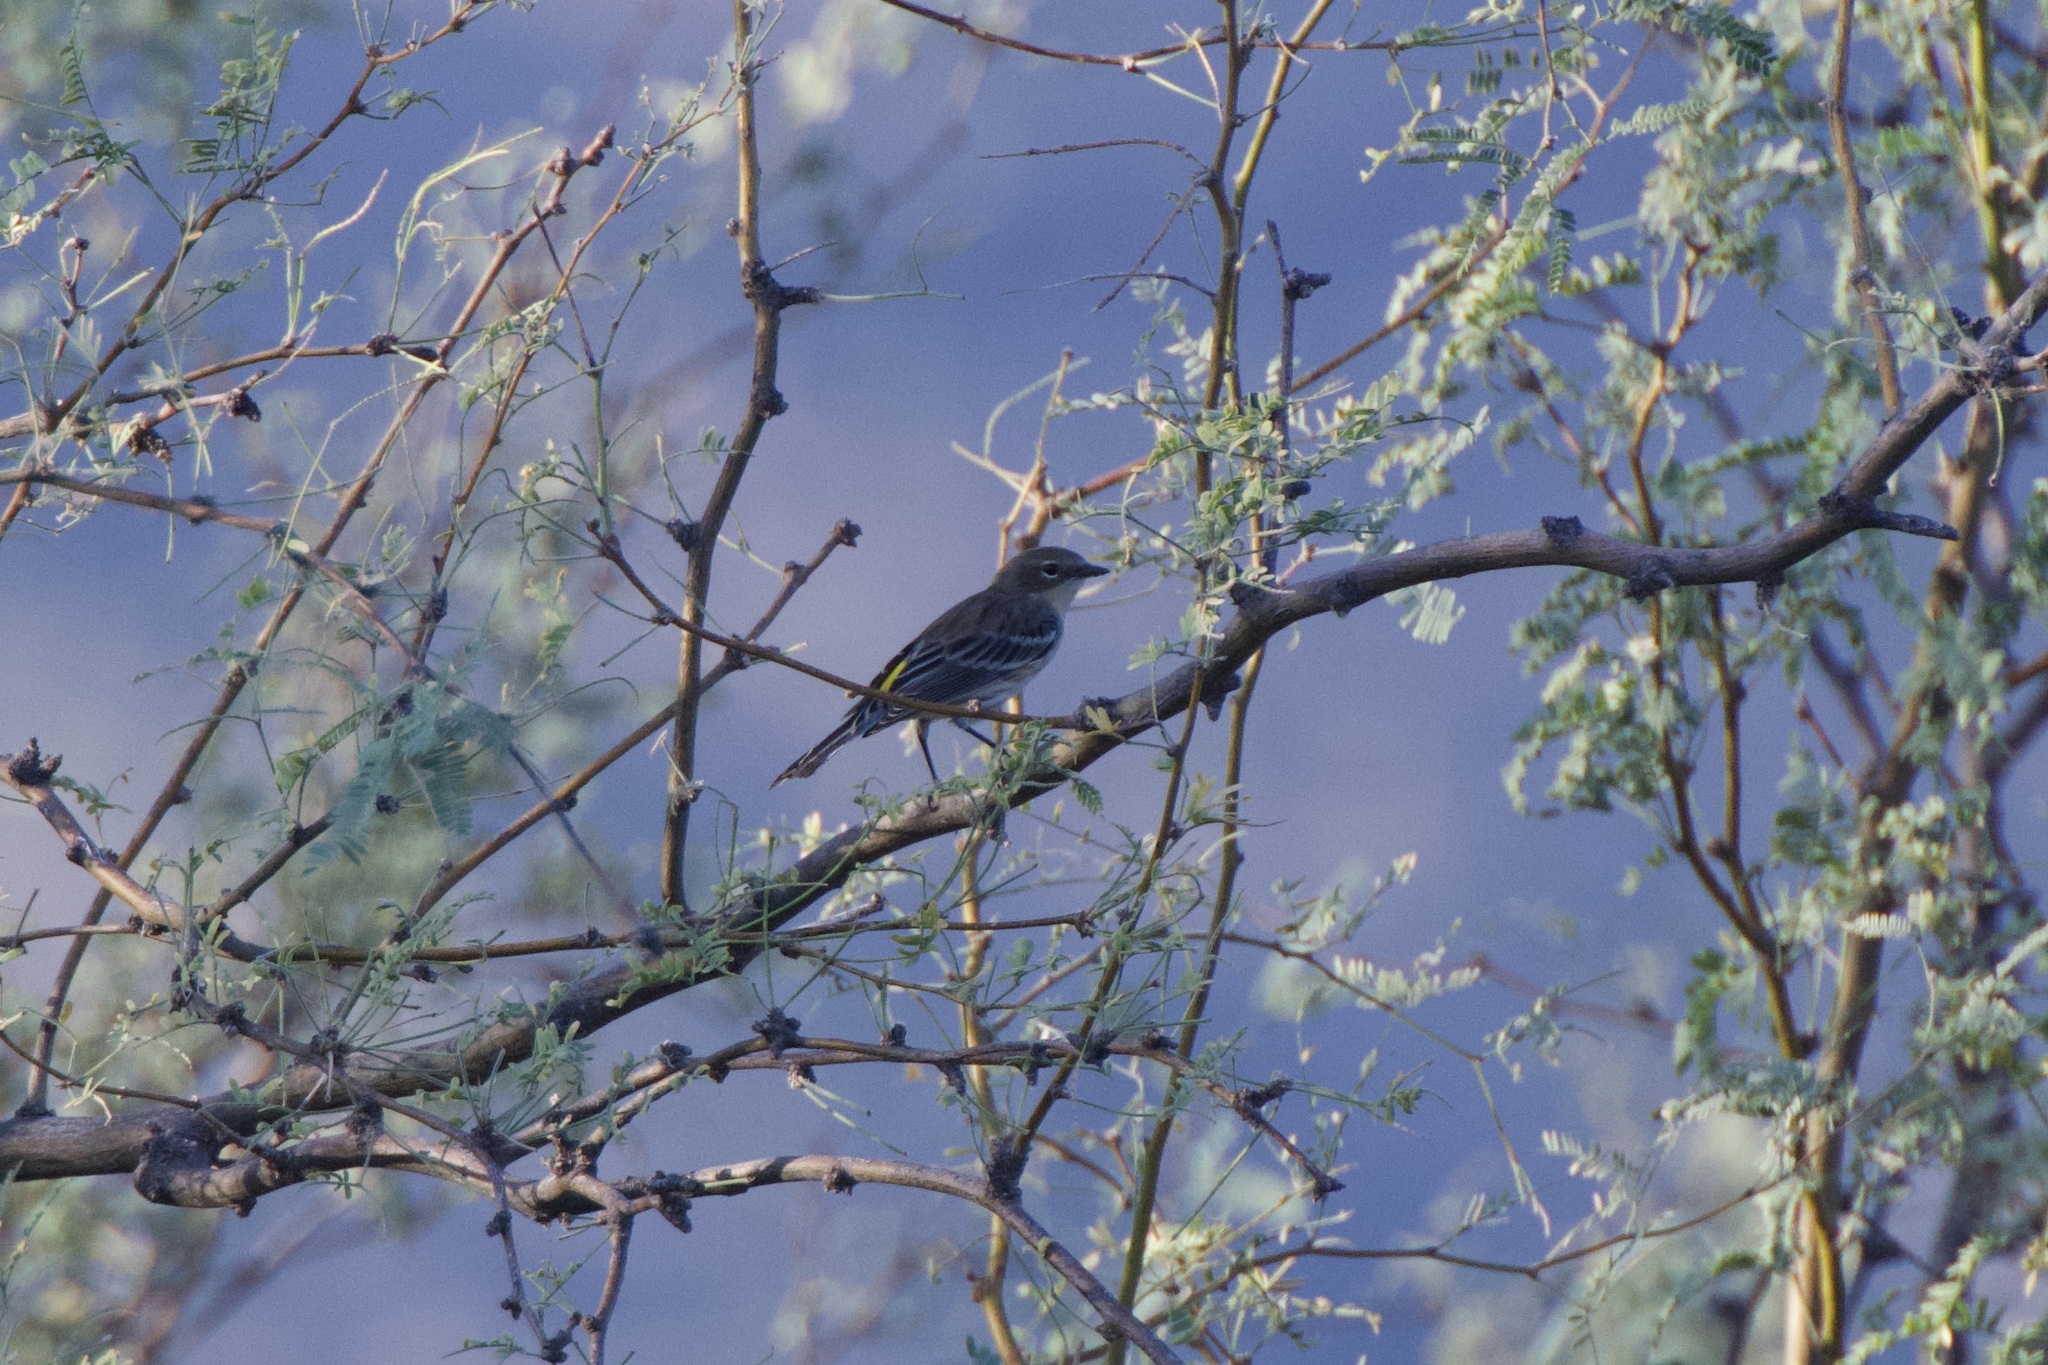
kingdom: Animalia
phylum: Chordata
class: Aves
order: Passeriformes
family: Parulidae
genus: Setophaga
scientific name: Setophaga coronata
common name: Myrtle warbler
